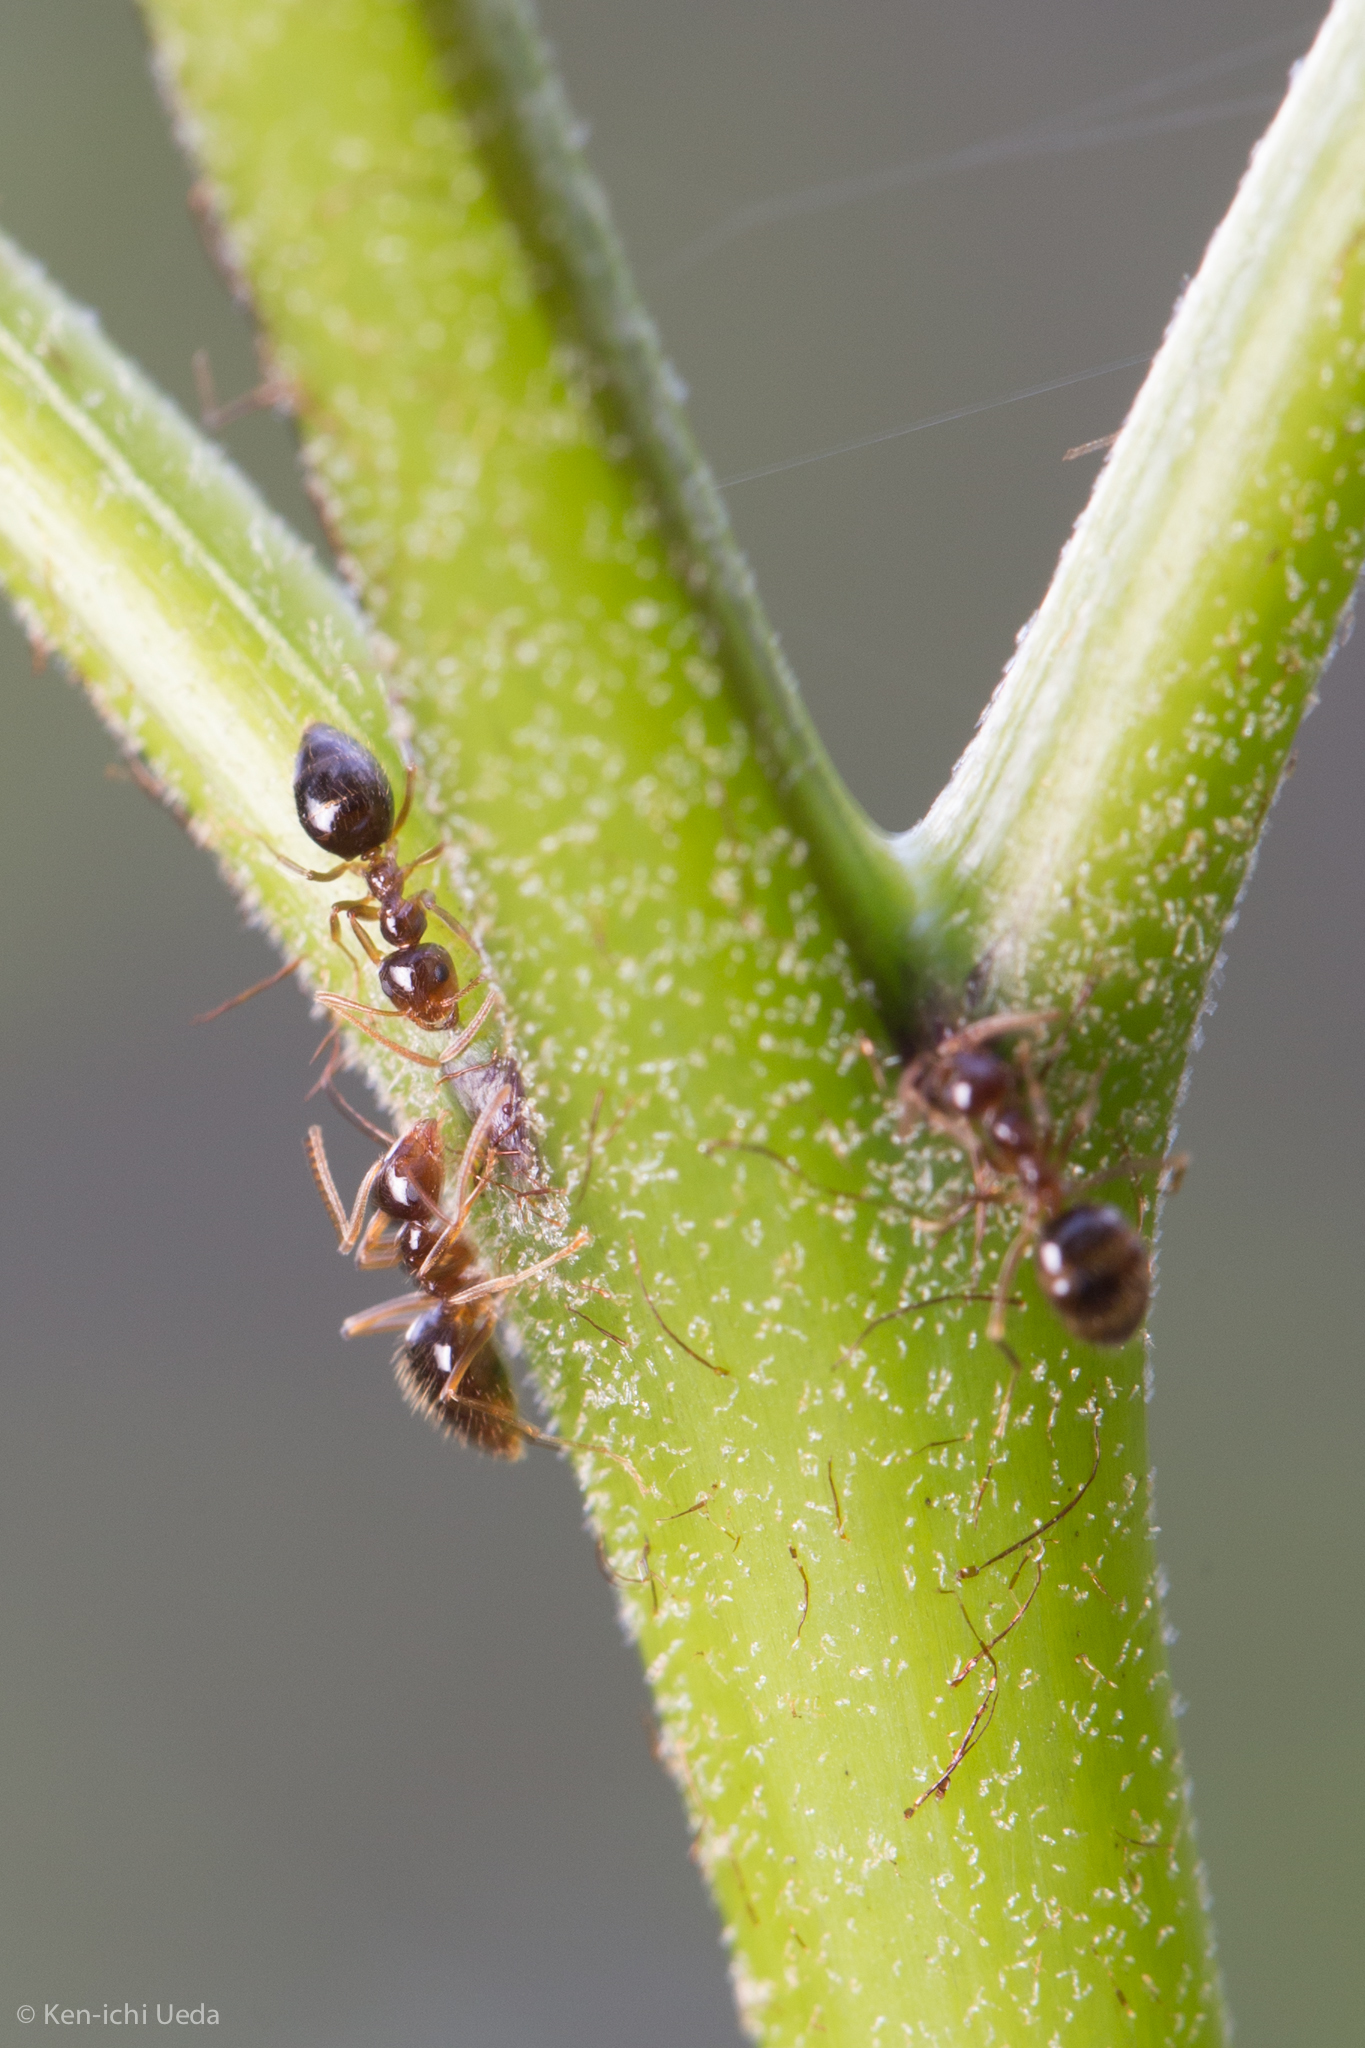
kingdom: Animalia
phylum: Arthropoda
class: Insecta
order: Hymenoptera
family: Formicidae
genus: Prenolepis
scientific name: Prenolepis imparis
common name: Small honey ant
